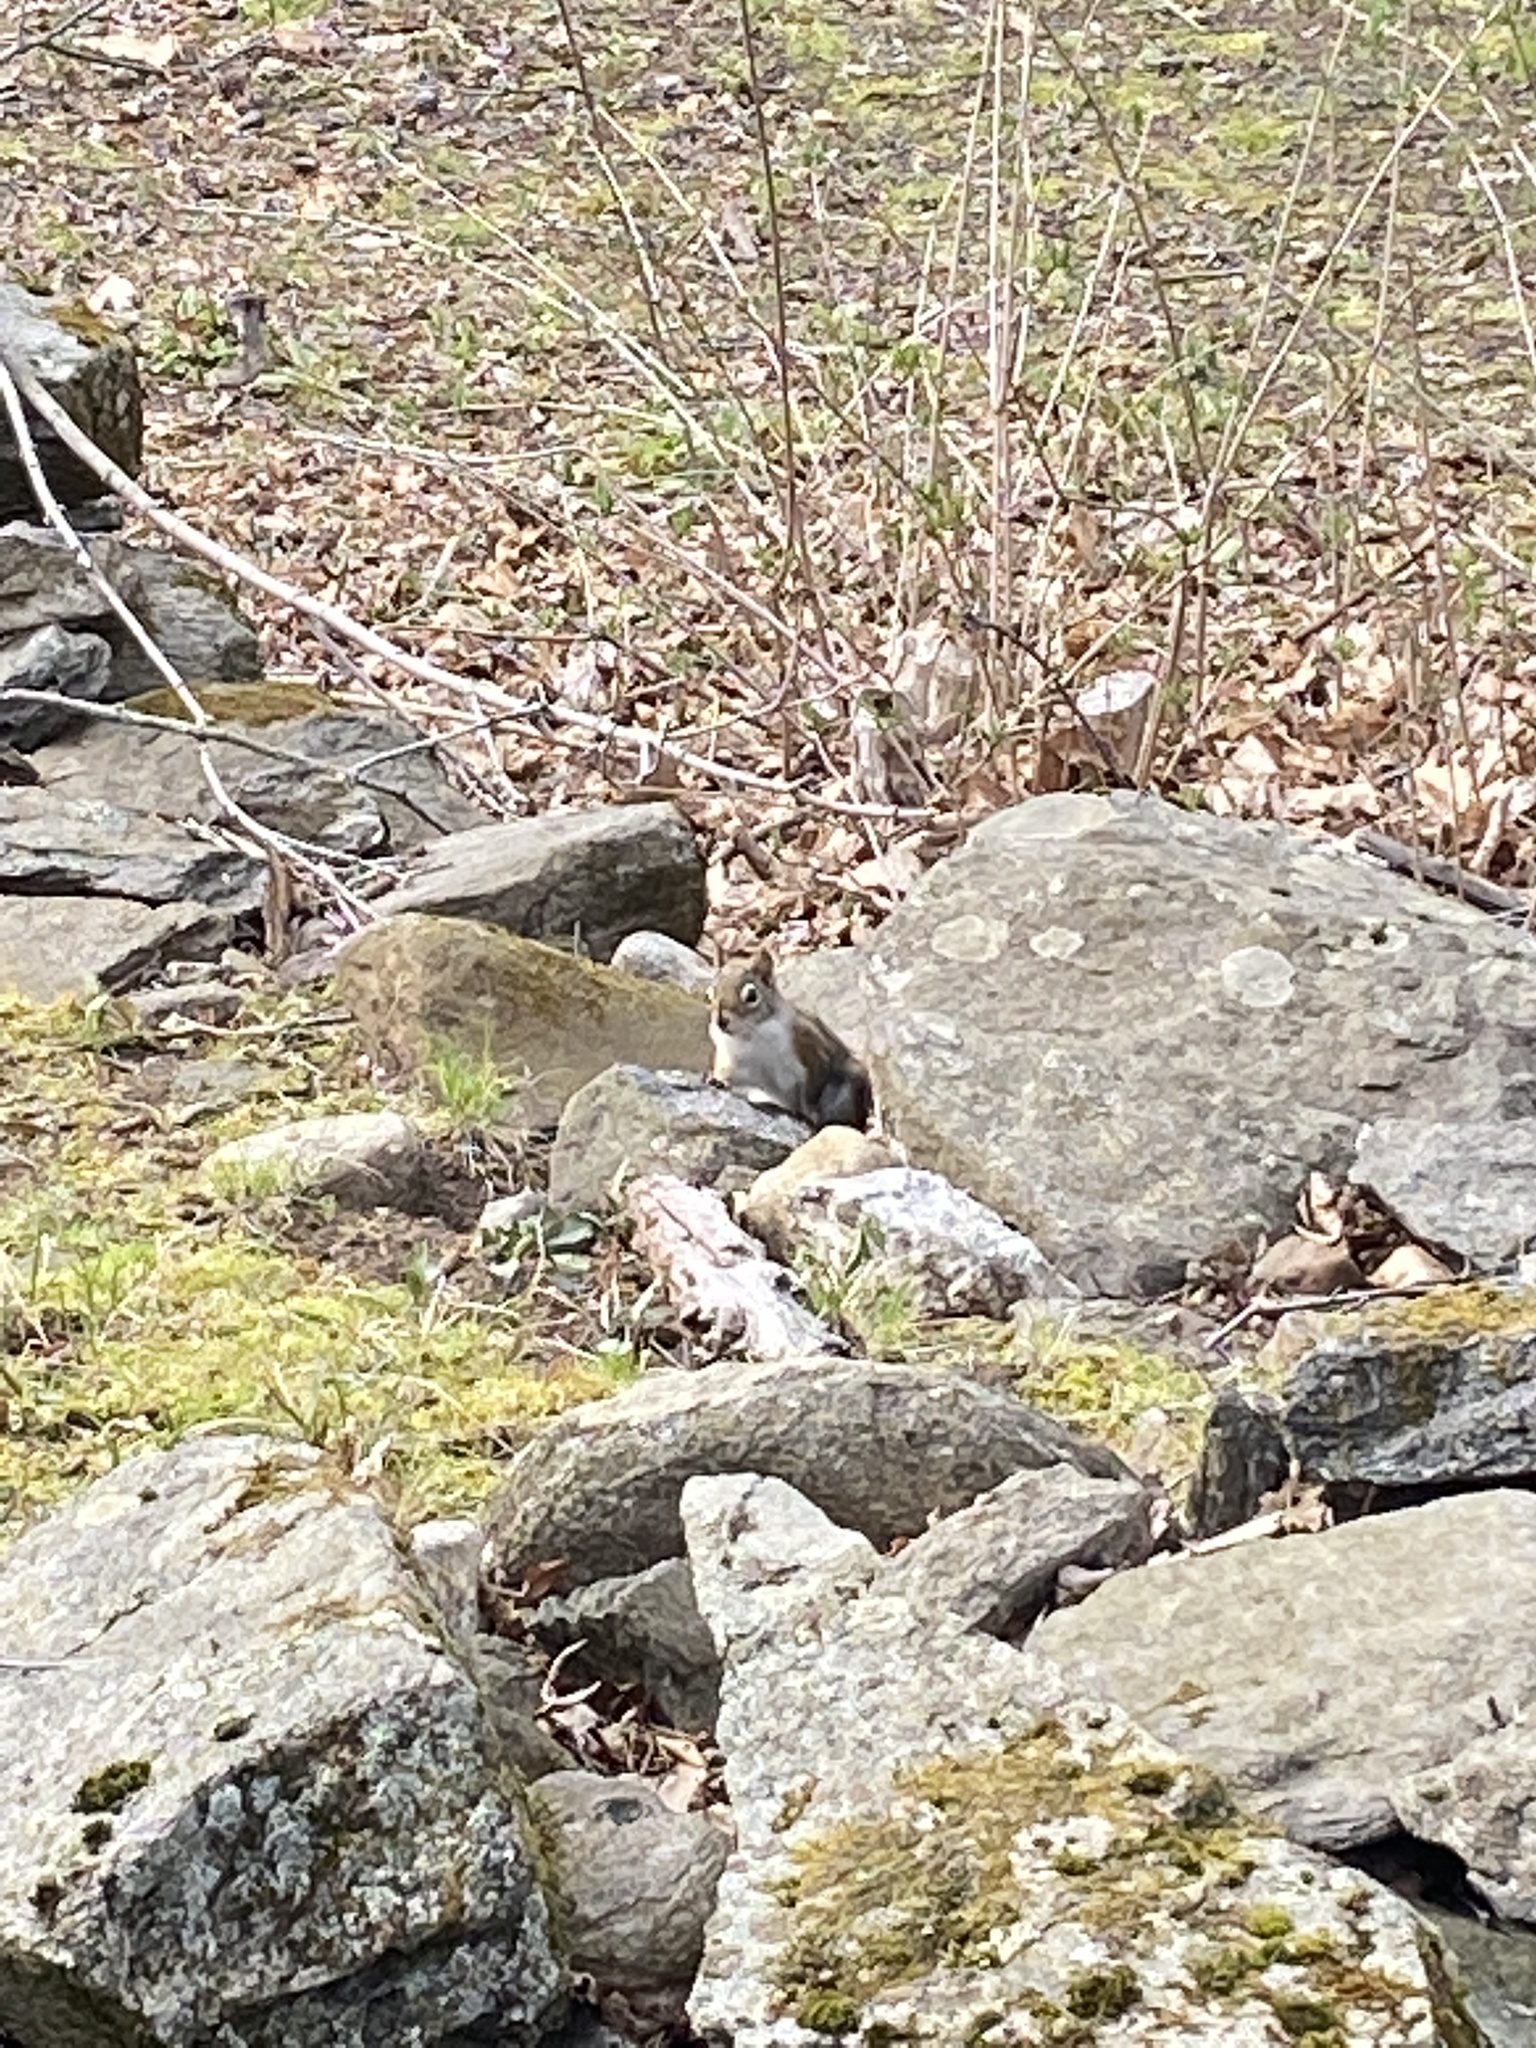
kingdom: Animalia
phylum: Chordata
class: Mammalia
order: Rodentia
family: Sciuridae
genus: Tamiasciurus
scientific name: Tamiasciurus hudsonicus
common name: Red squirrel
